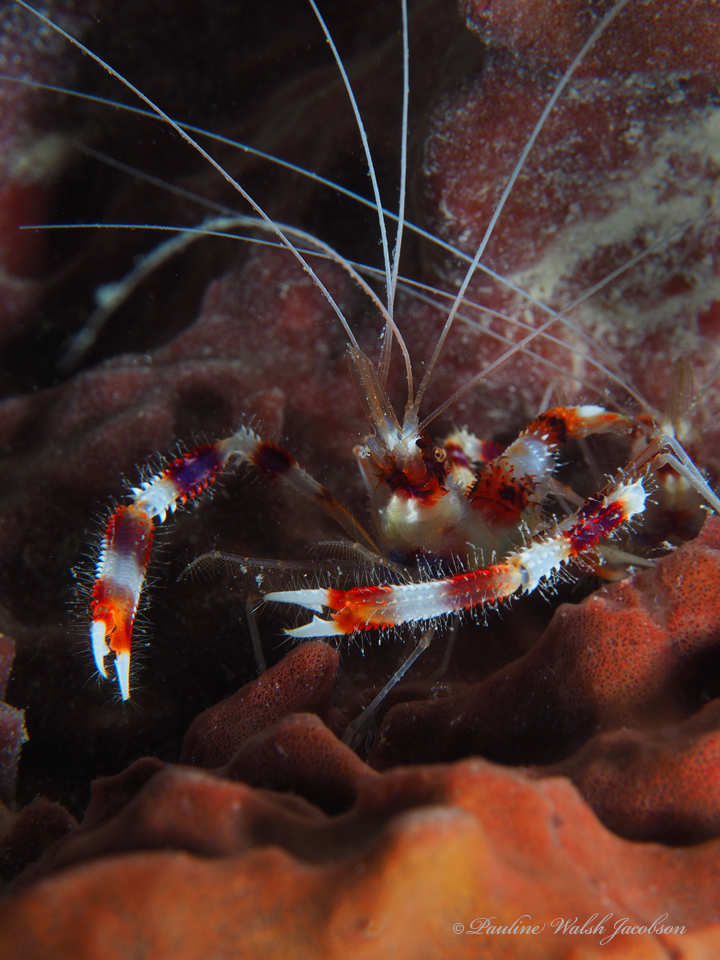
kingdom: Animalia
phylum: Arthropoda
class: Malacostraca
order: Decapoda
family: Stenopodidae
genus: Stenopus
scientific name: Stenopus hispidus
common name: Banded coral shrimp
